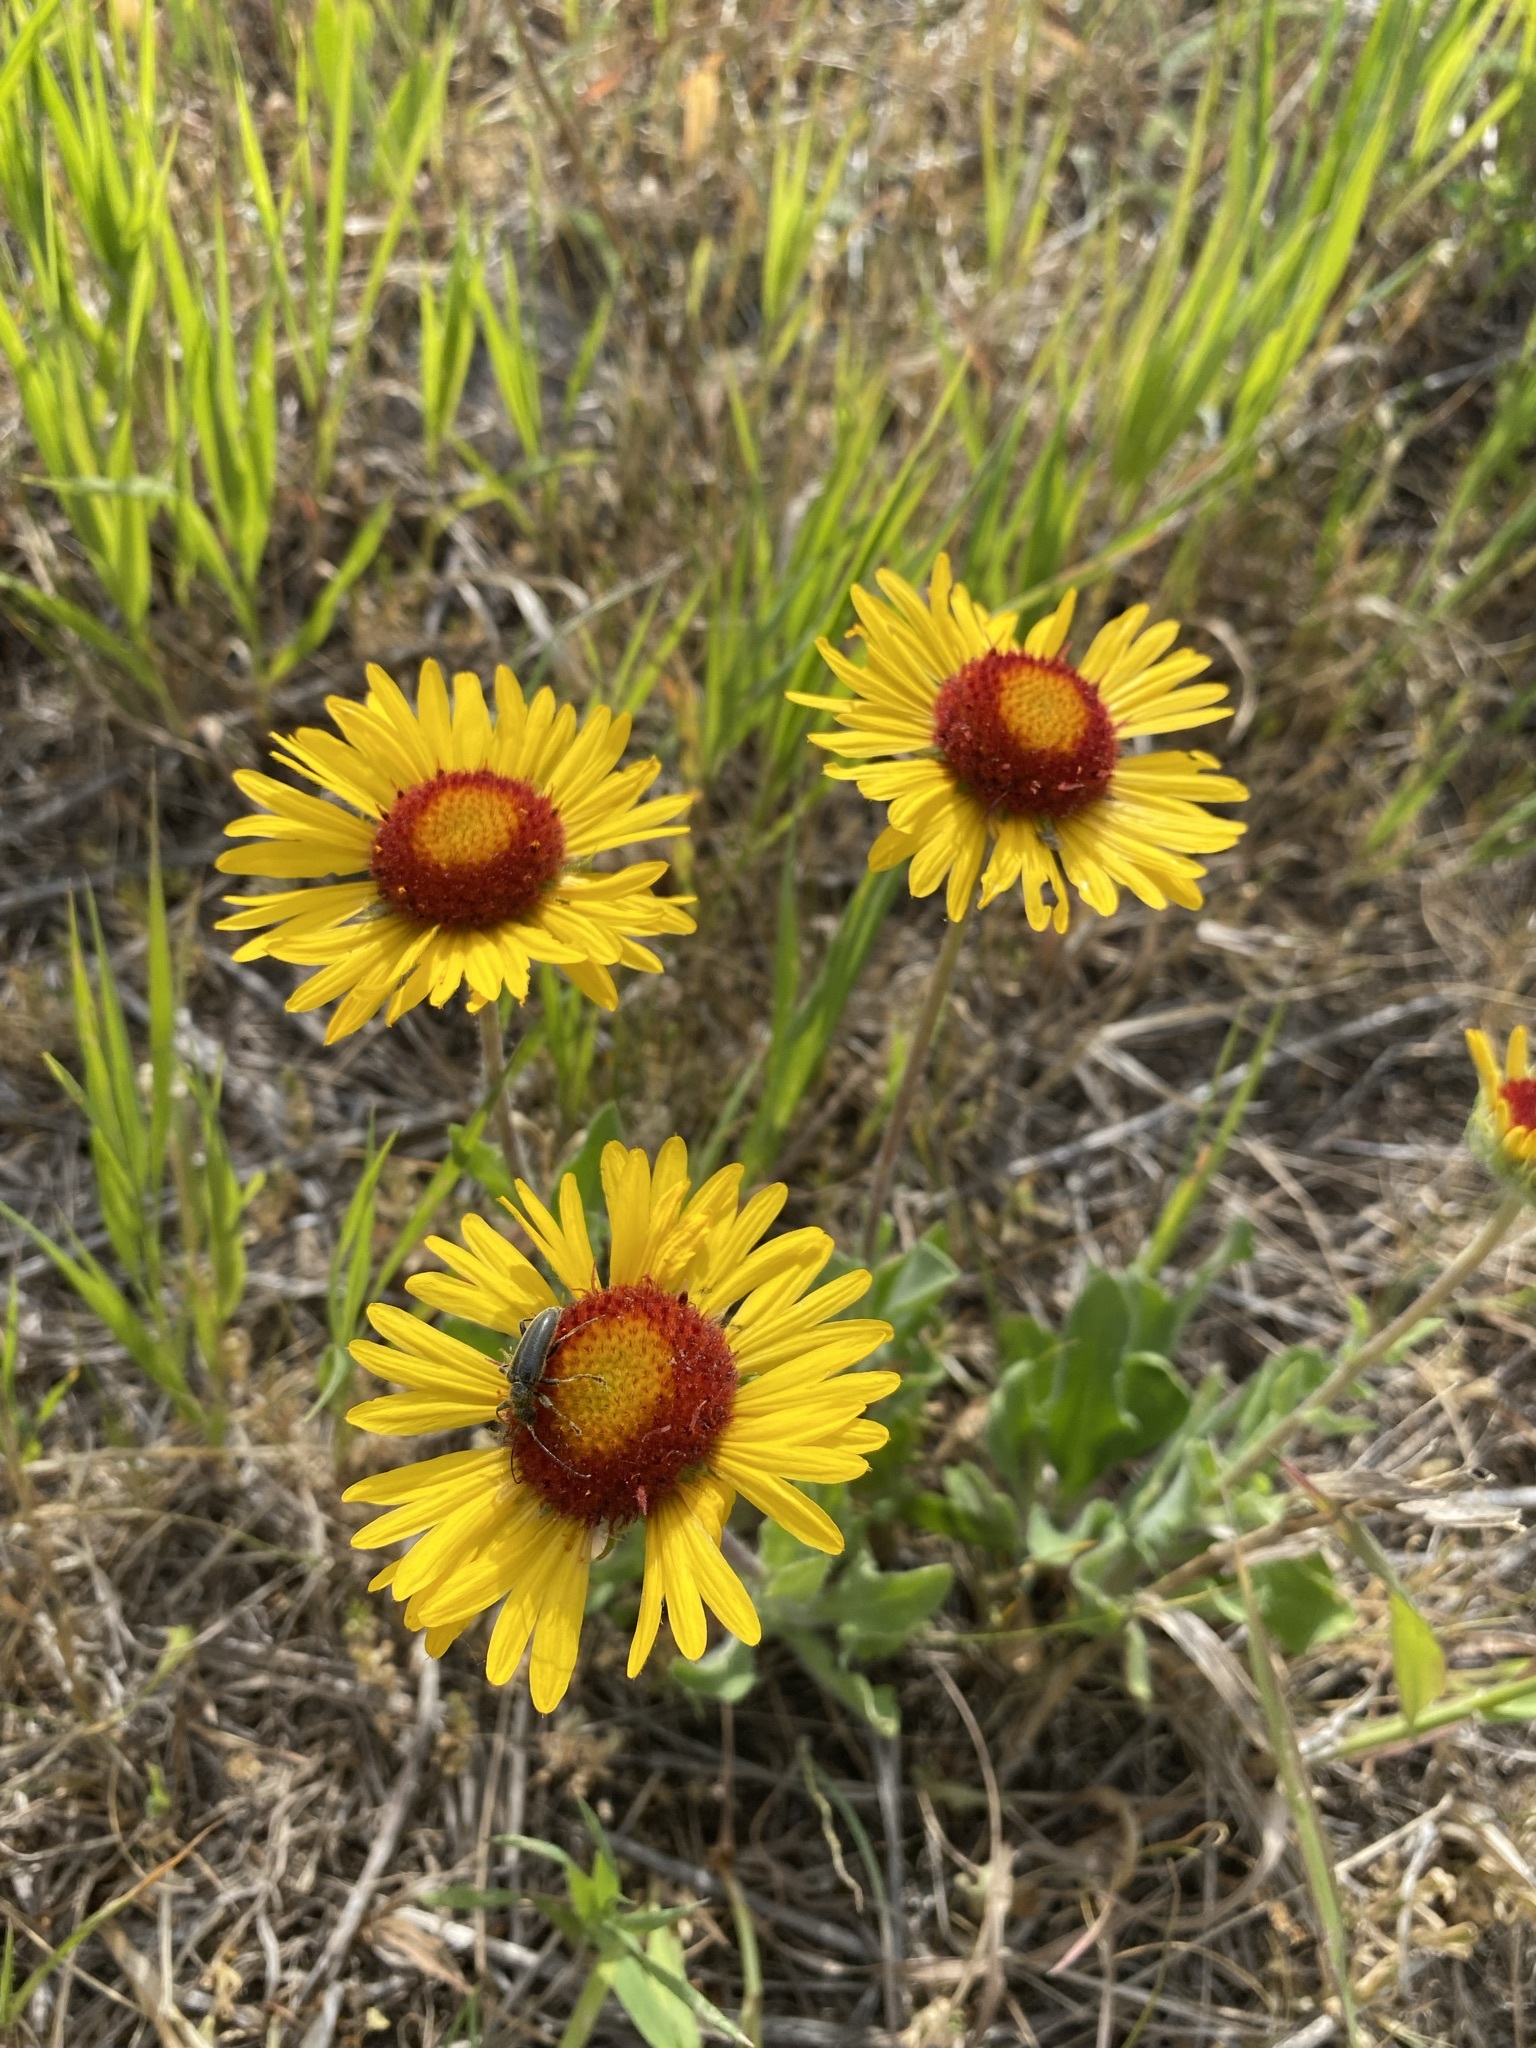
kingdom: Plantae
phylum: Tracheophyta
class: Magnoliopsida
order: Asterales
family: Asteraceae
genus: Gaillardia
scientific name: Gaillardia aristata
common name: Blanket-flower
